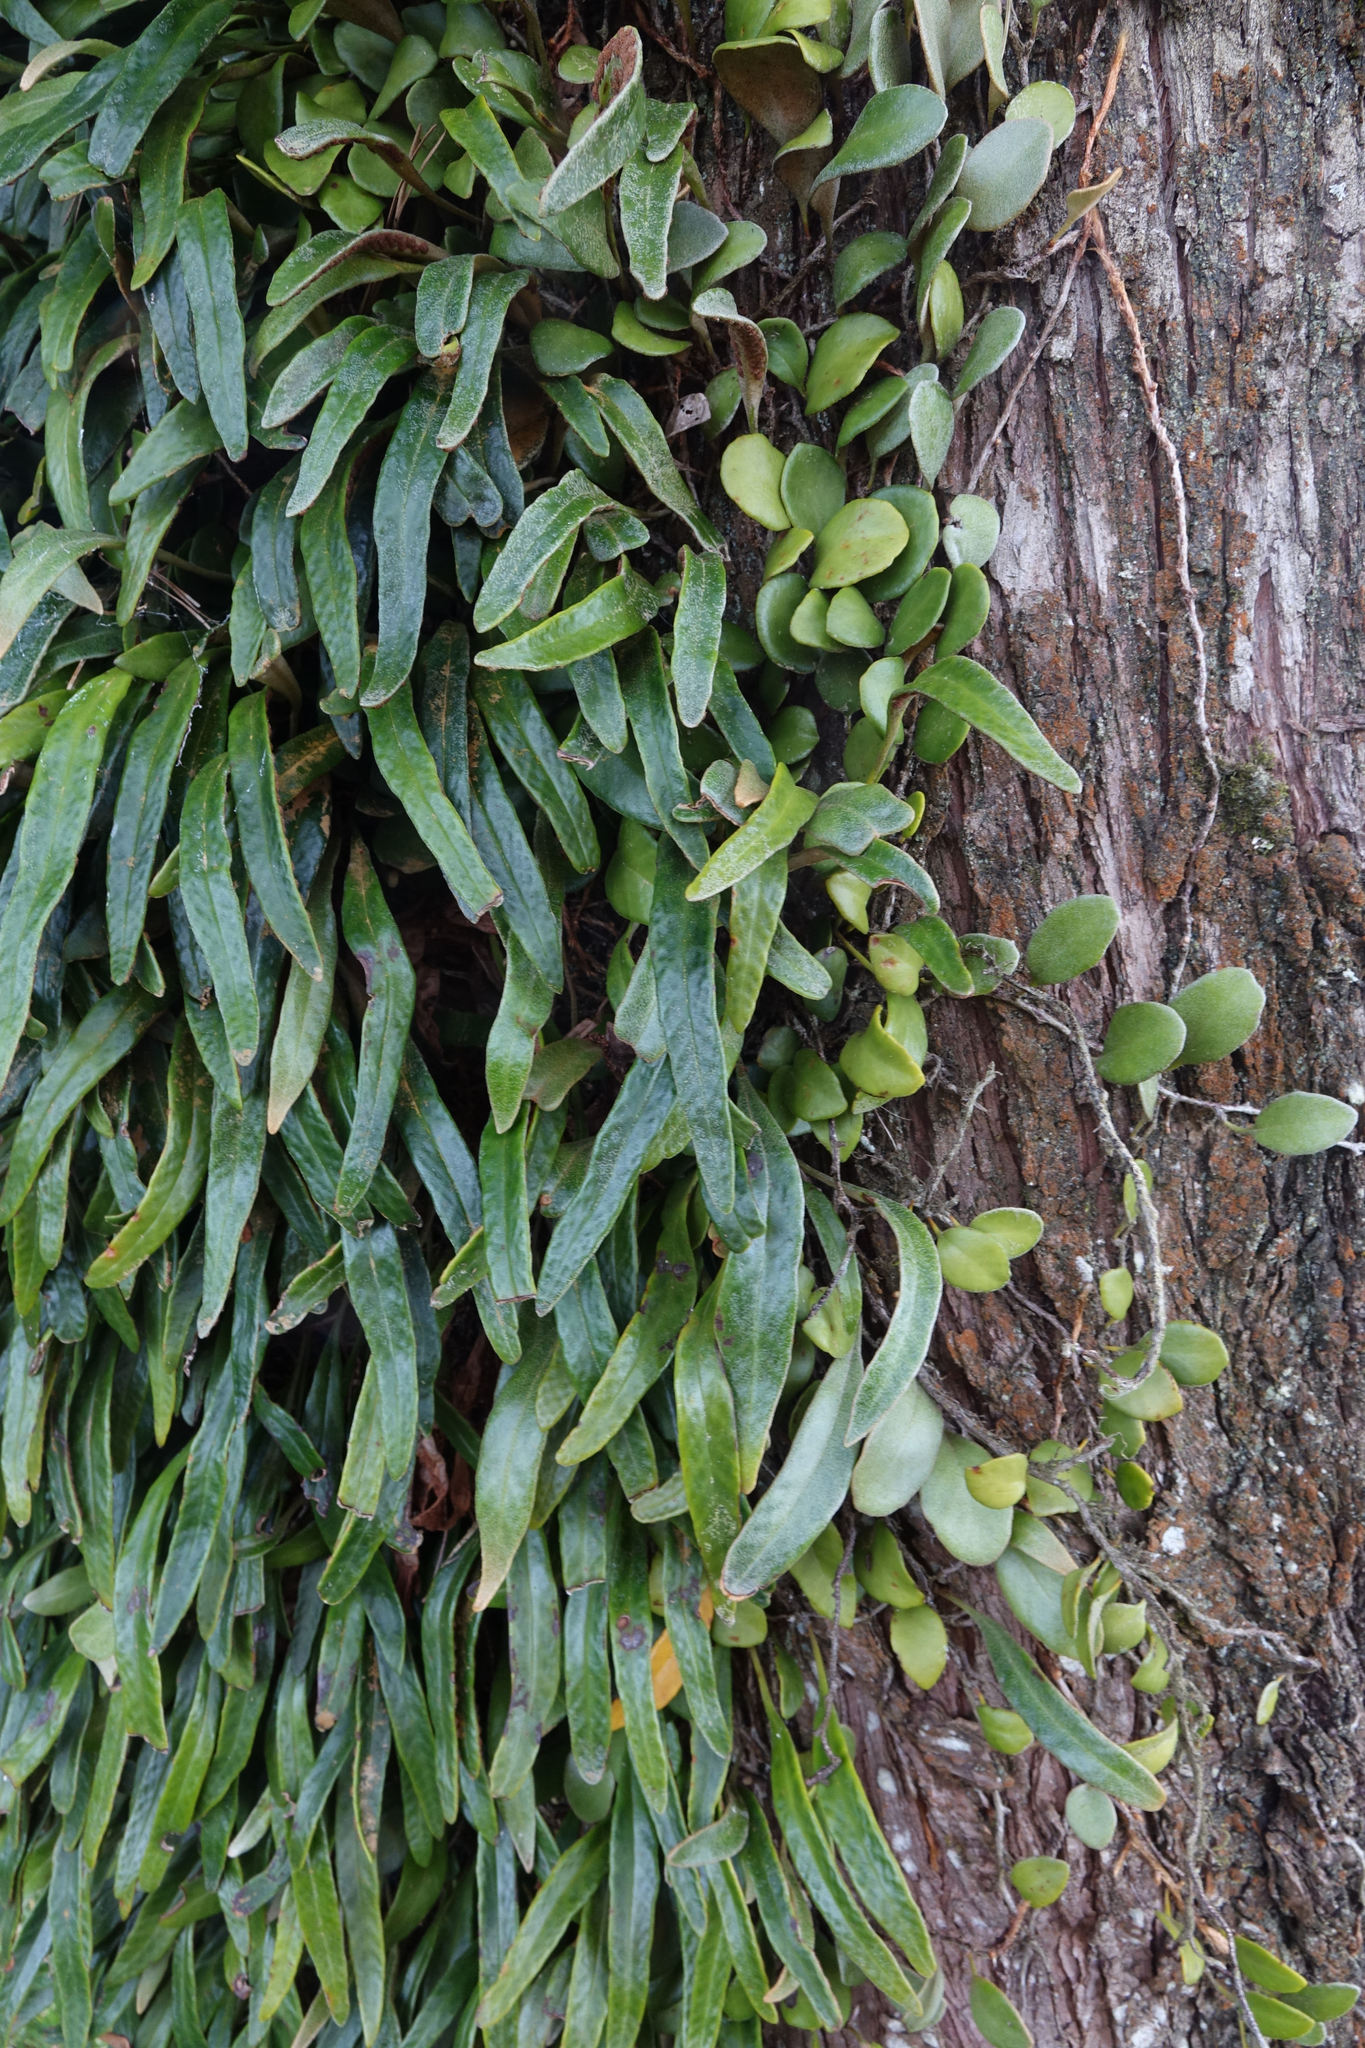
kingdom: Plantae
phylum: Tracheophyta
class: Polypodiopsida
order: Polypodiales
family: Polypodiaceae
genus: Pyrrosia
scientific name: Pyrrosia eleagnifolia
